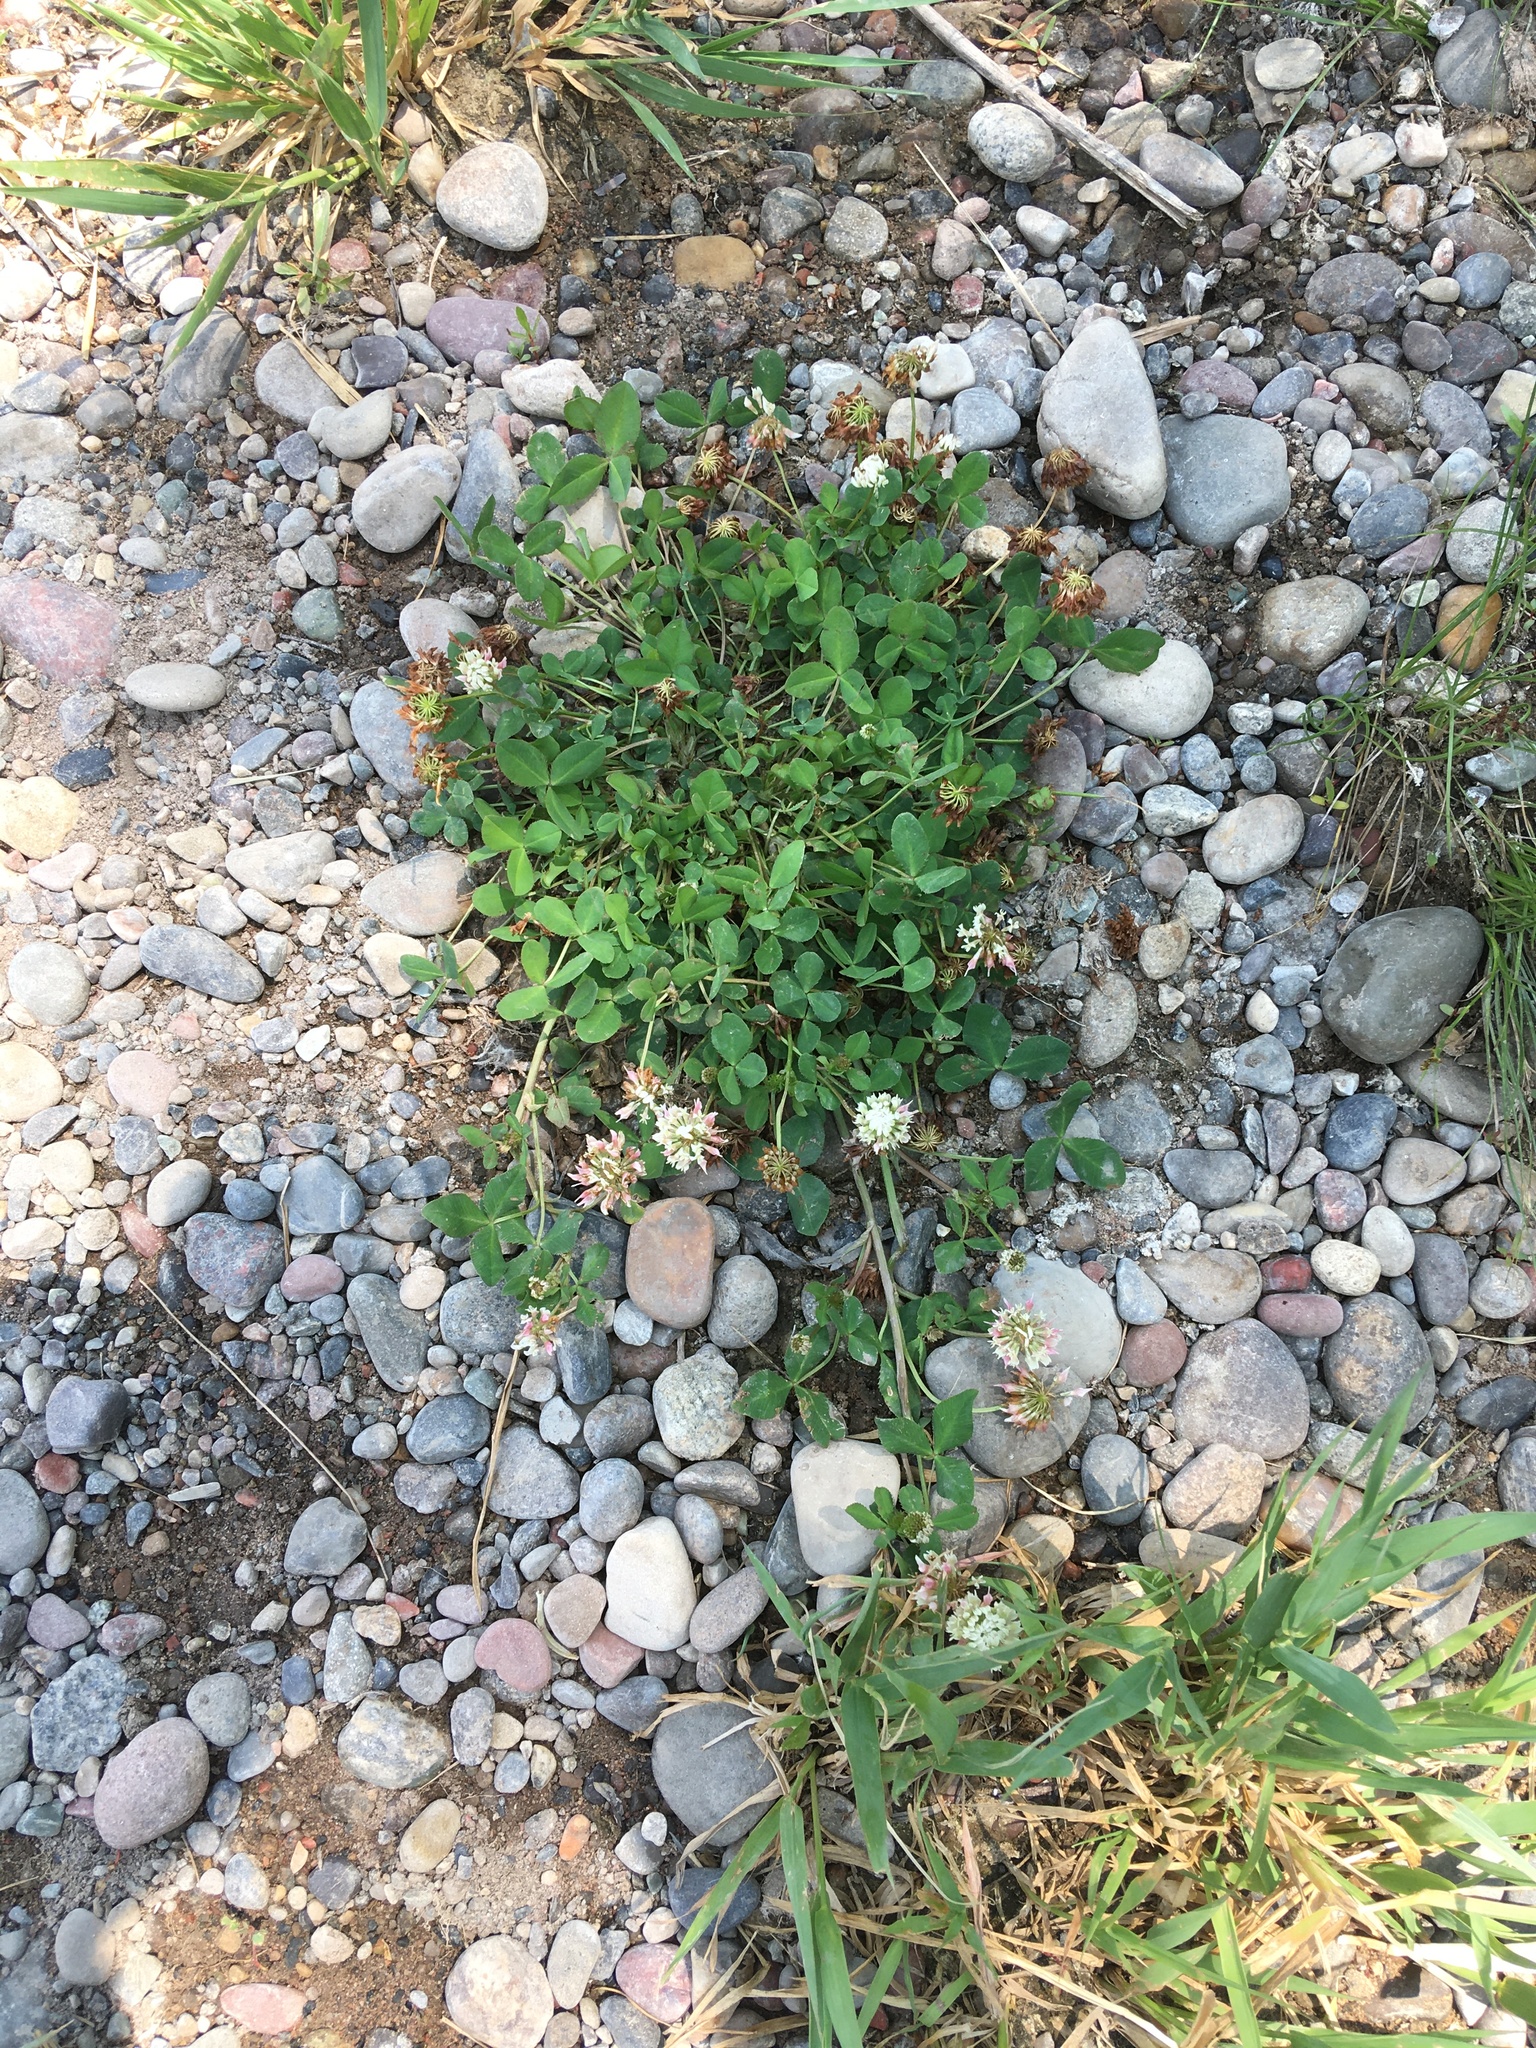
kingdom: Plantae
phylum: Tracheophyta
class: Magnoliopsida
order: Fabales
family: Fabaceae
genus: Trifolium
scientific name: Trifolium hybridum
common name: Alsike clover
